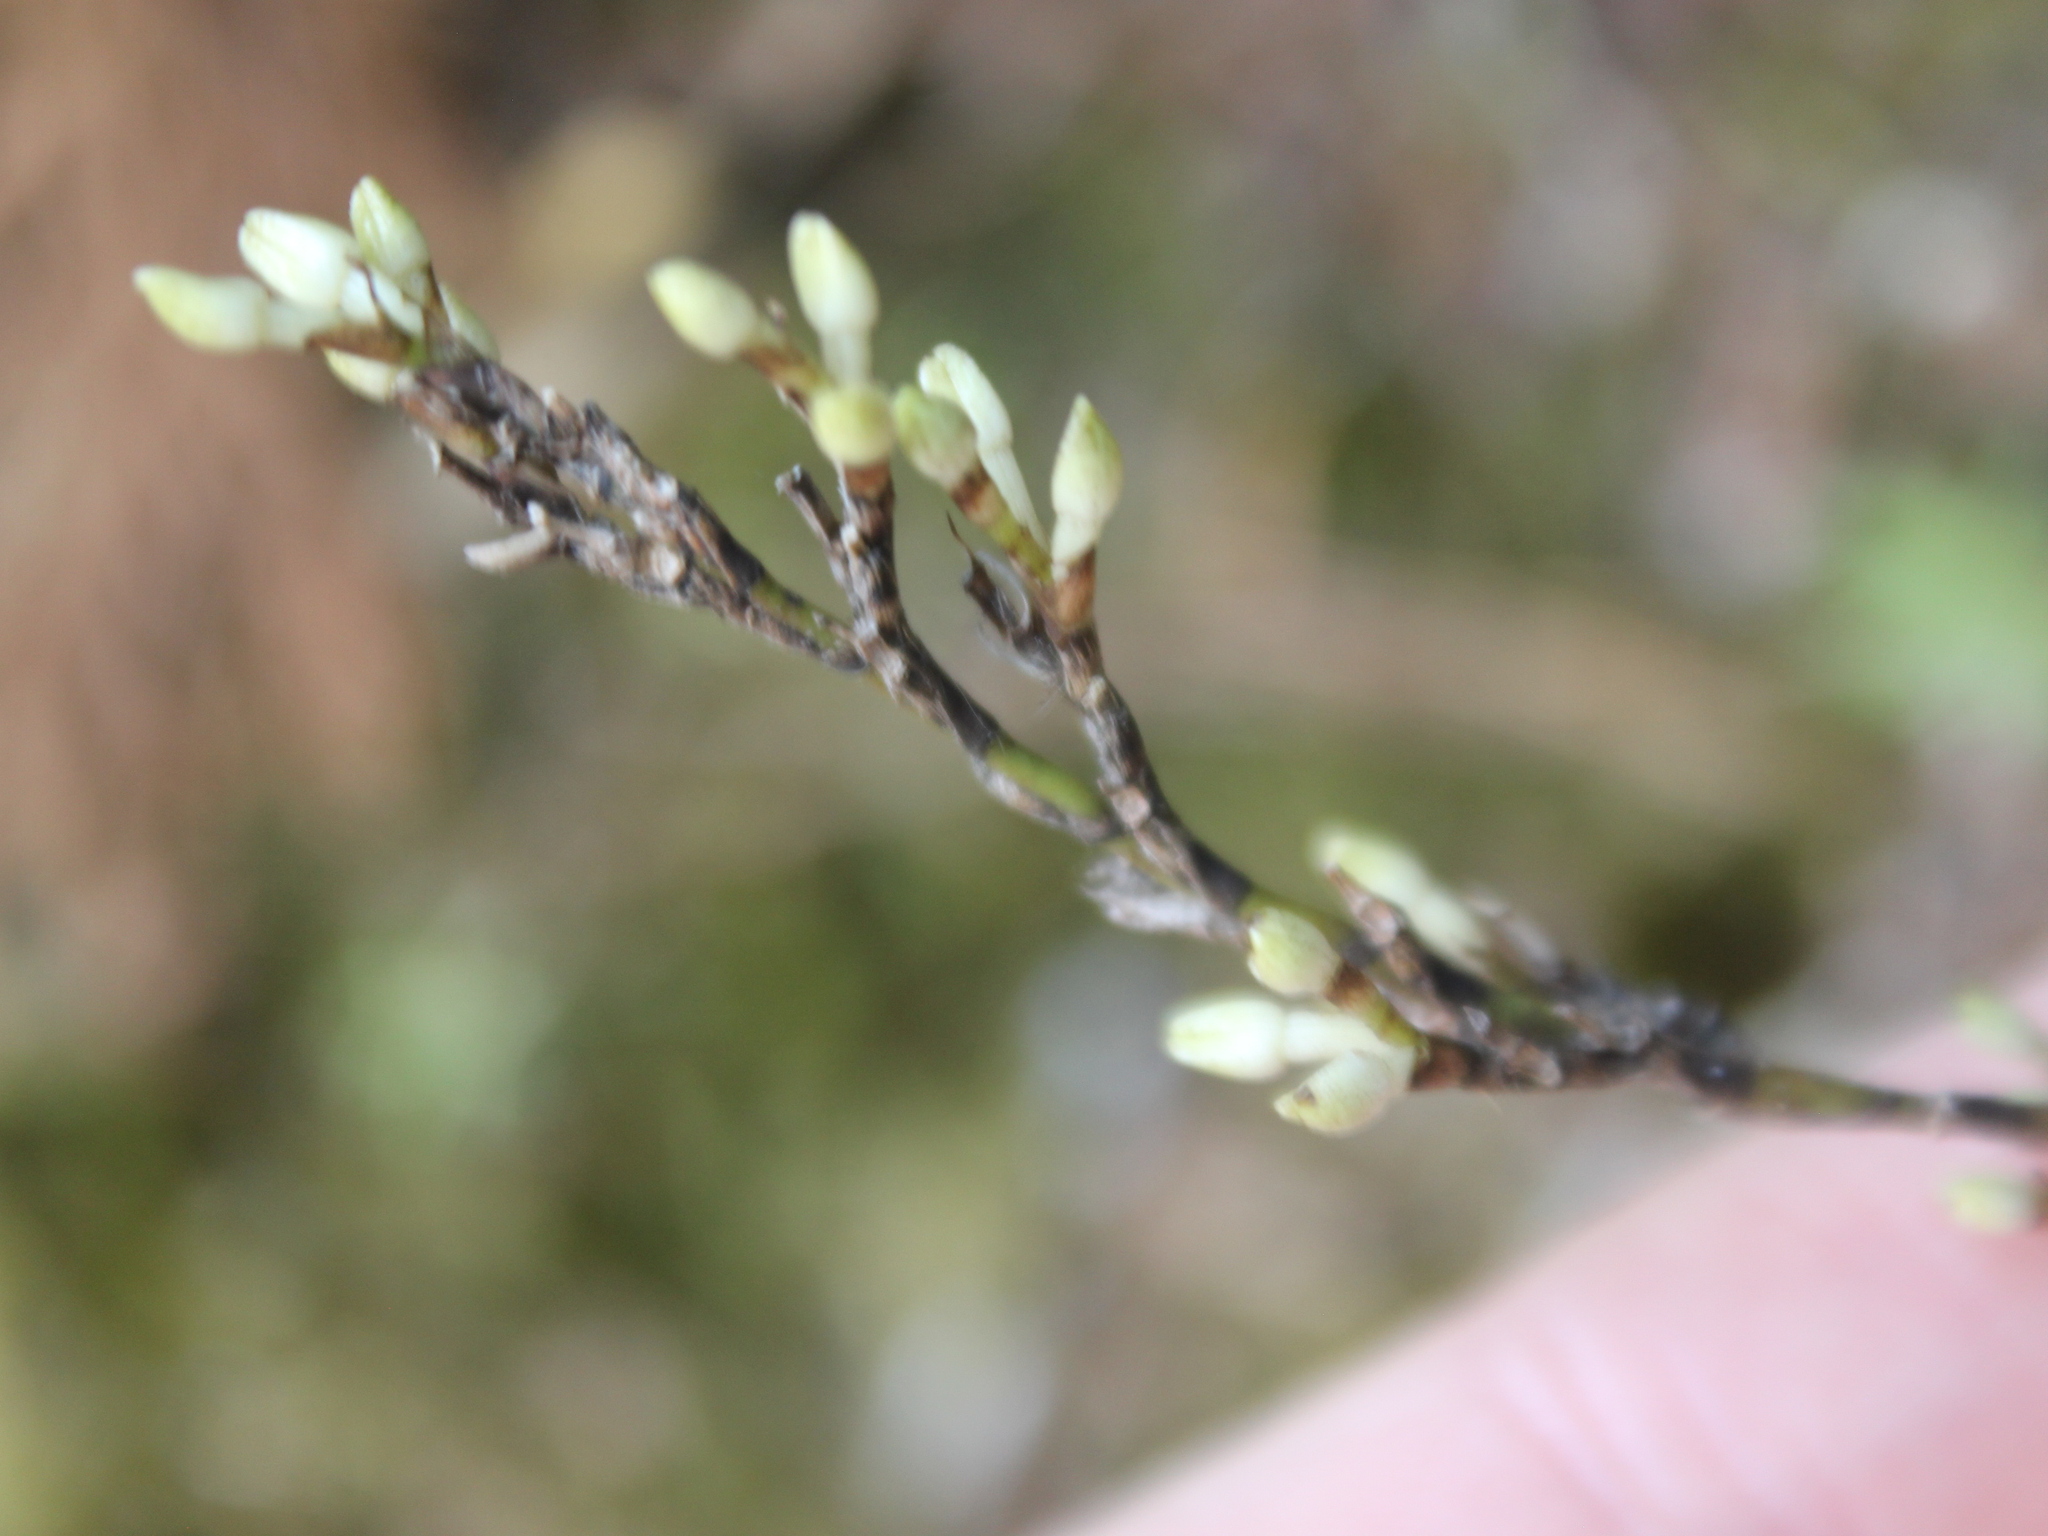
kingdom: Plantae
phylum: Tracheophyta
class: Liliopsida
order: Asparagales
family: Orchidaceae
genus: Earina
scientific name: Earina autumnalis
